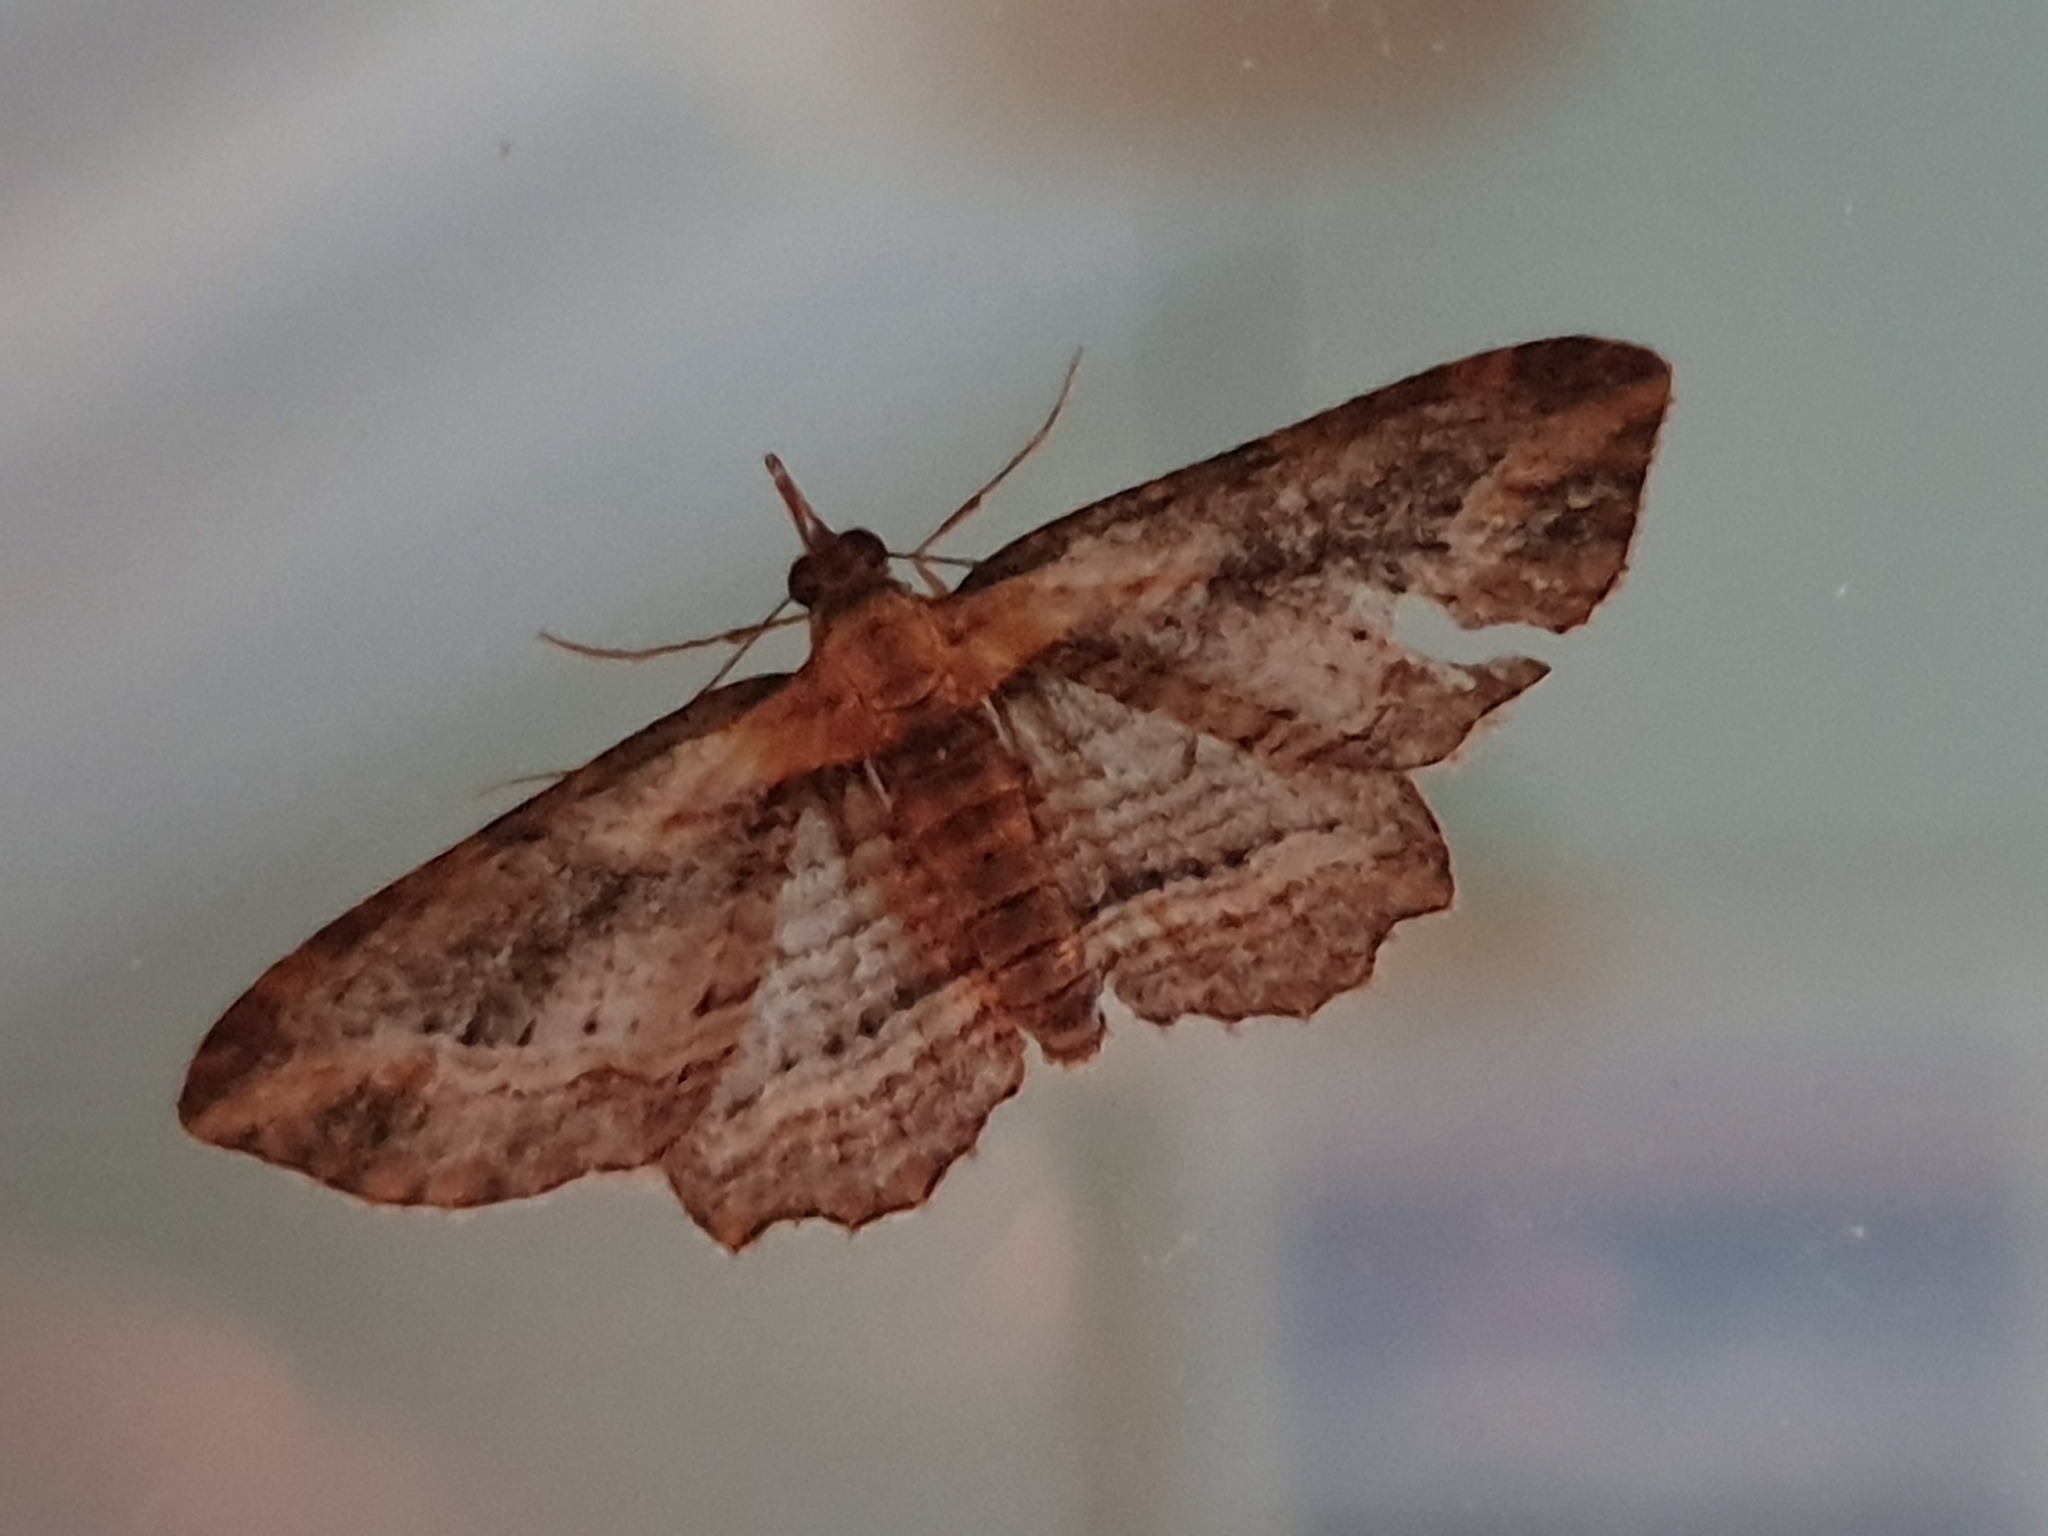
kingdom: Animalia
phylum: Arthropoda
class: Insecta
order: Lepidoptera
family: Geometridae
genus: Chloroclystis
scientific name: Chloroclystis filata
